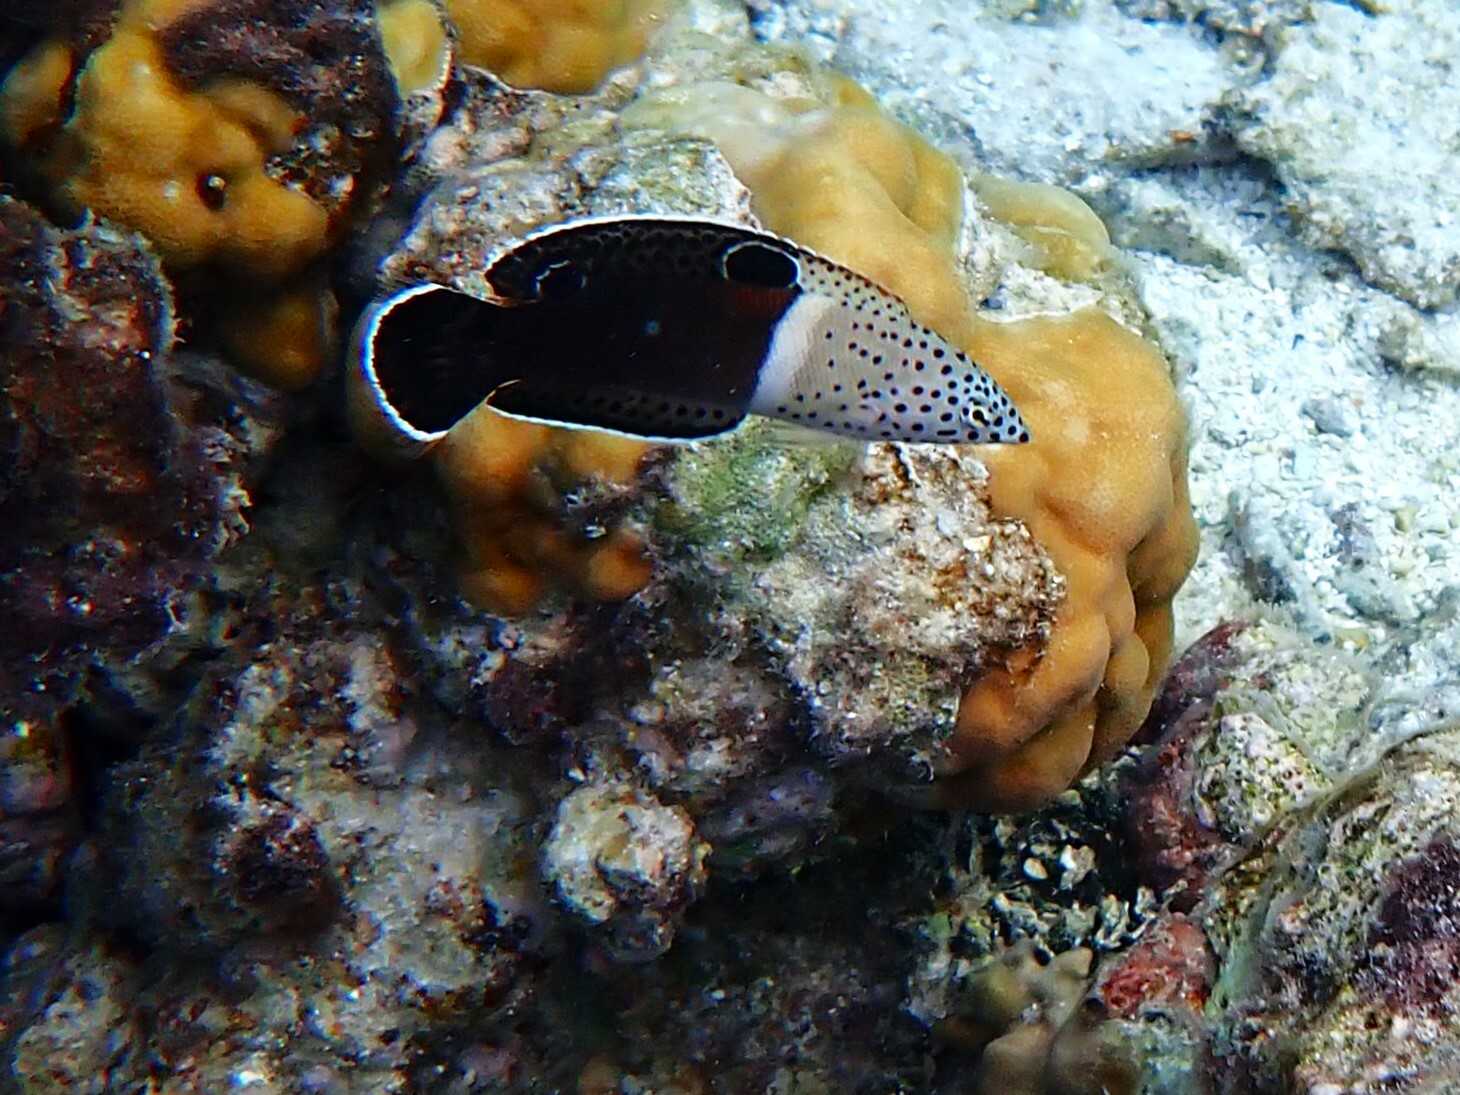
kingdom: Animalia
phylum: Chordata
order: Perciformes
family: Labridae
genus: Coris
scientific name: Coris aygula
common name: Clown coris
